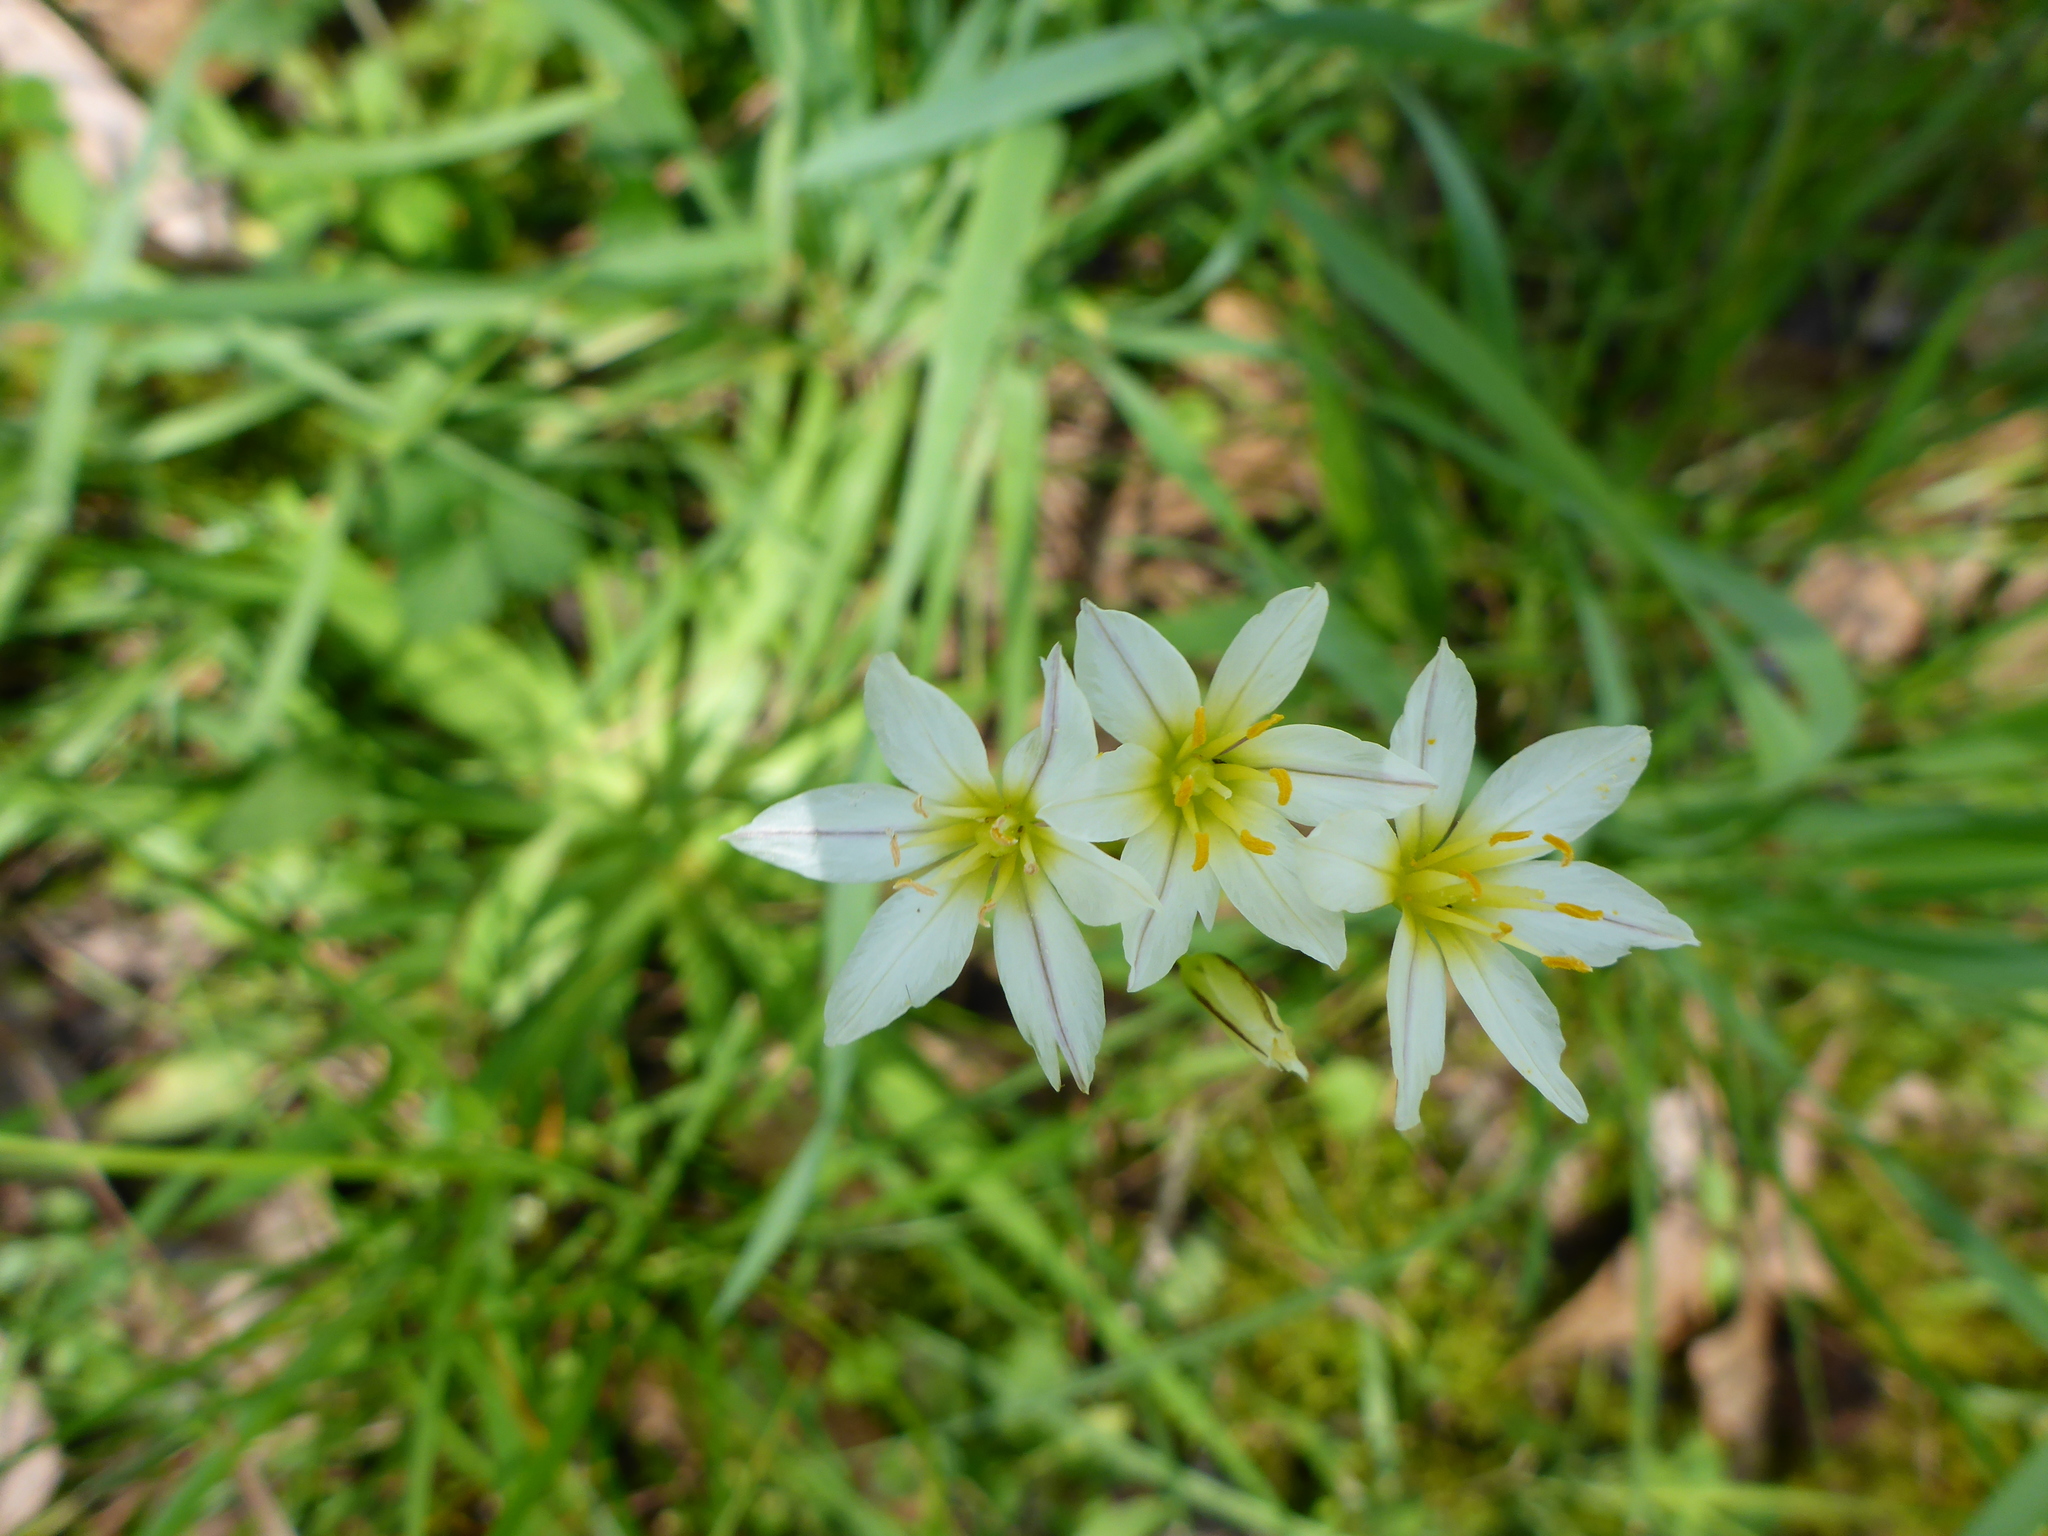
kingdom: Plantae
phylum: Tracheophyta
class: Liliopsida
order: Asparagales
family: Amaryllidaceae
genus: Nothoscordum
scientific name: Nothoscordum bivalve
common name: Crow-poison
